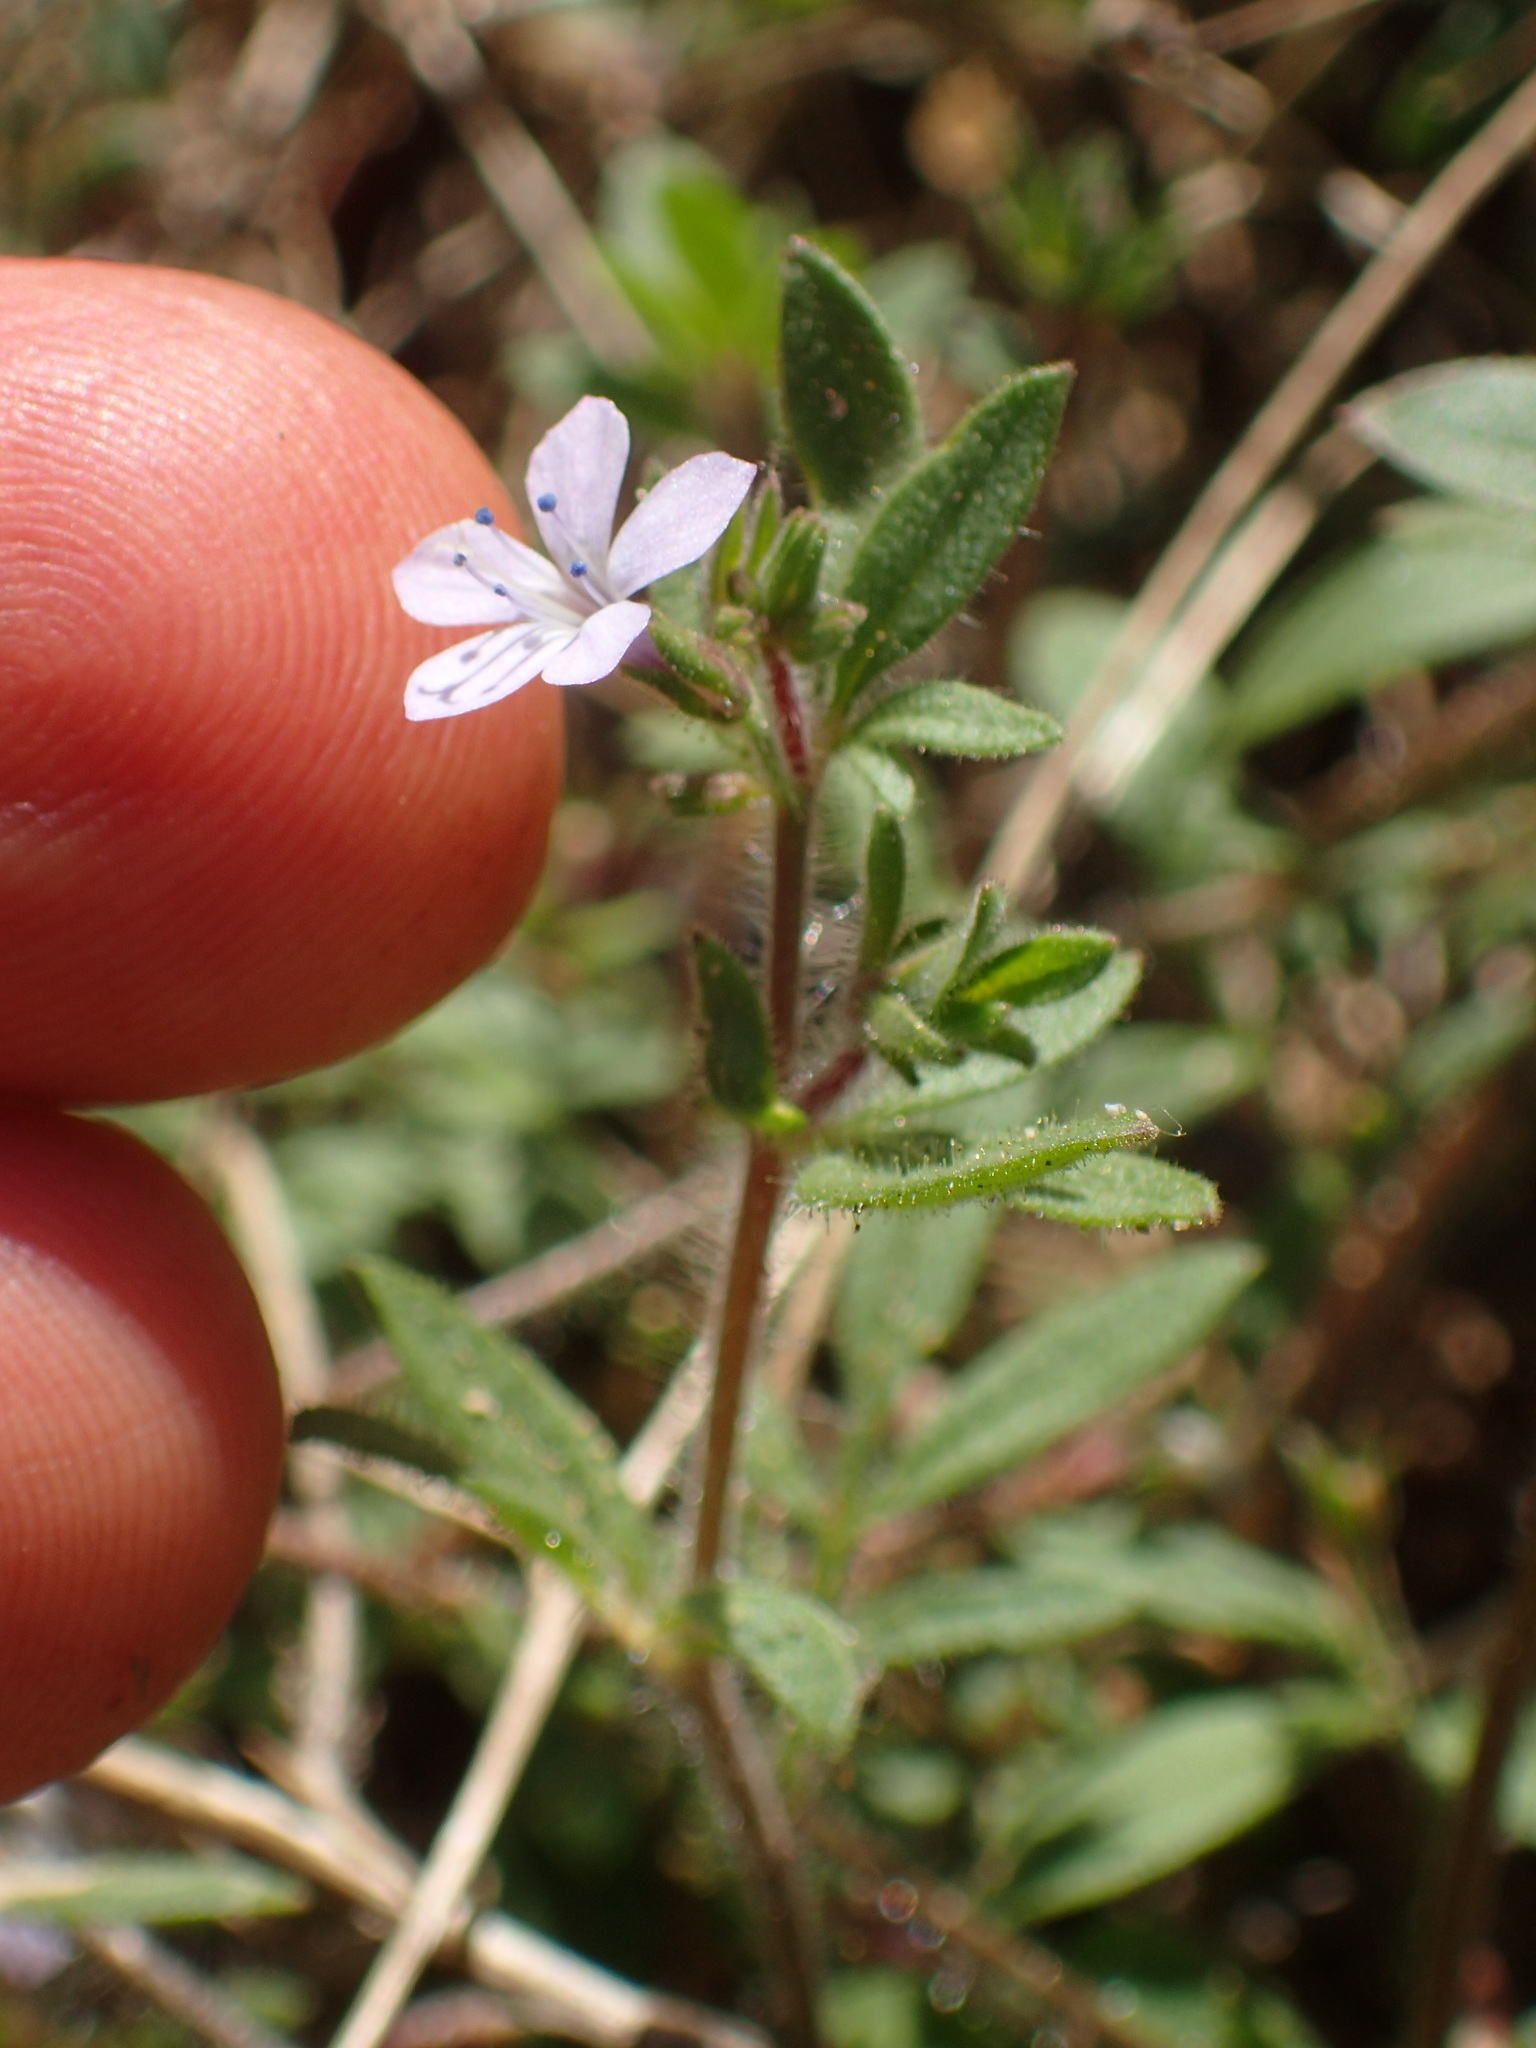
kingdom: Plantae
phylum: Tracheophyta
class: Magnoliopsida
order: Ericales
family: Polemoniaceae
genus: Allophyllum
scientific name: Allophyllum glutinosum
